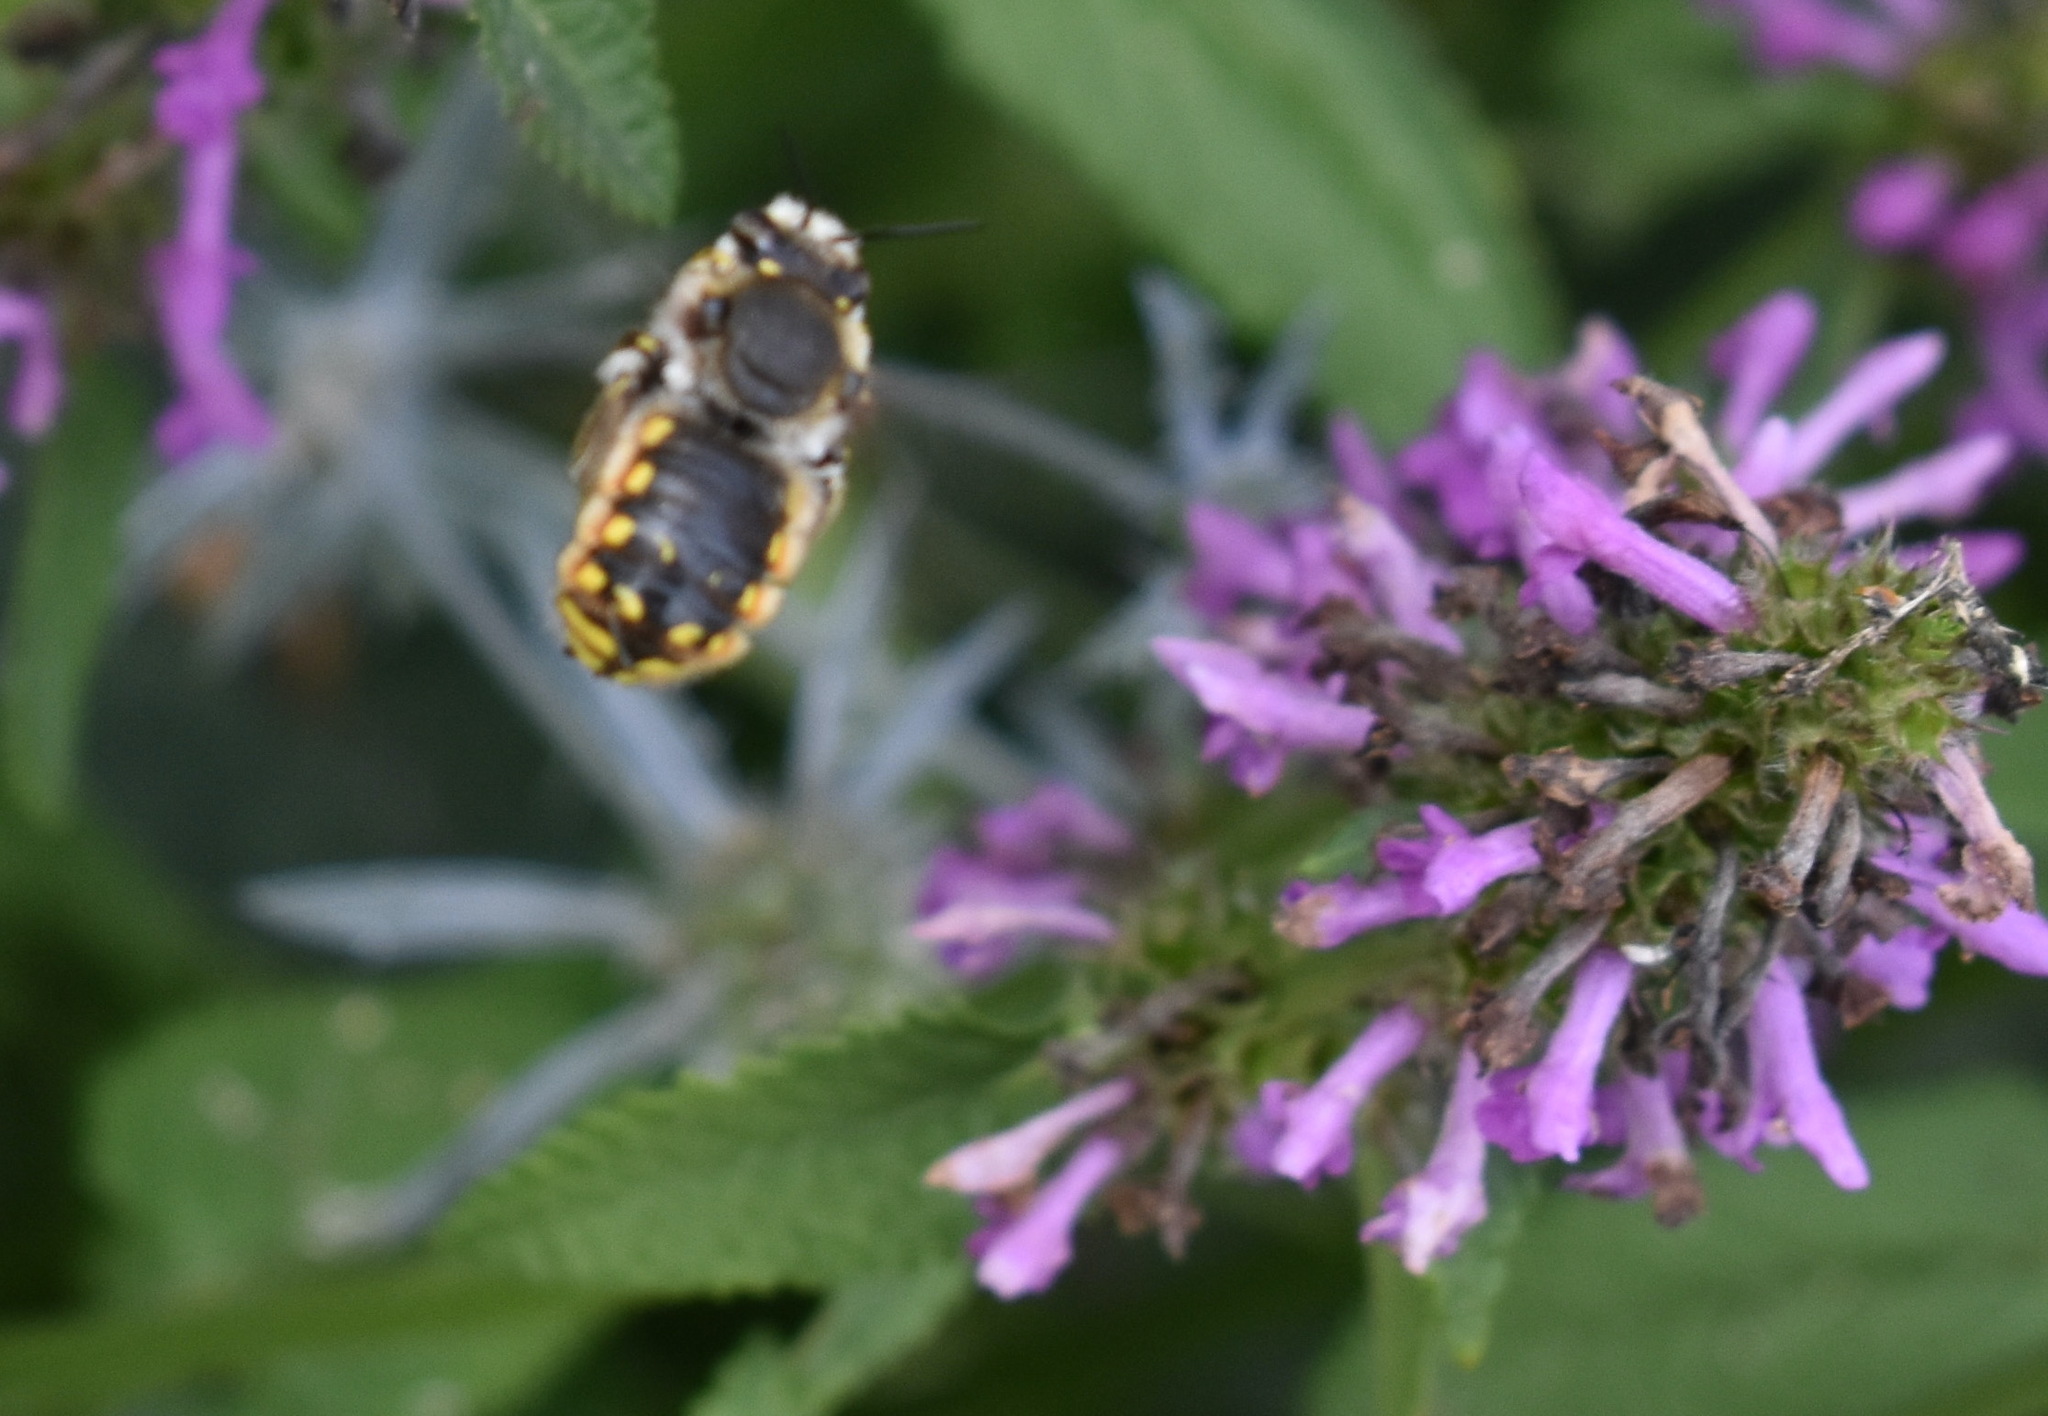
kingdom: Animalia
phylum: Arthropoda
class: Insecta
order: Hymenoptera
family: Megachilidae
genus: Anthidium
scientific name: Anthidium manicatum
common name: Wool carder bee
